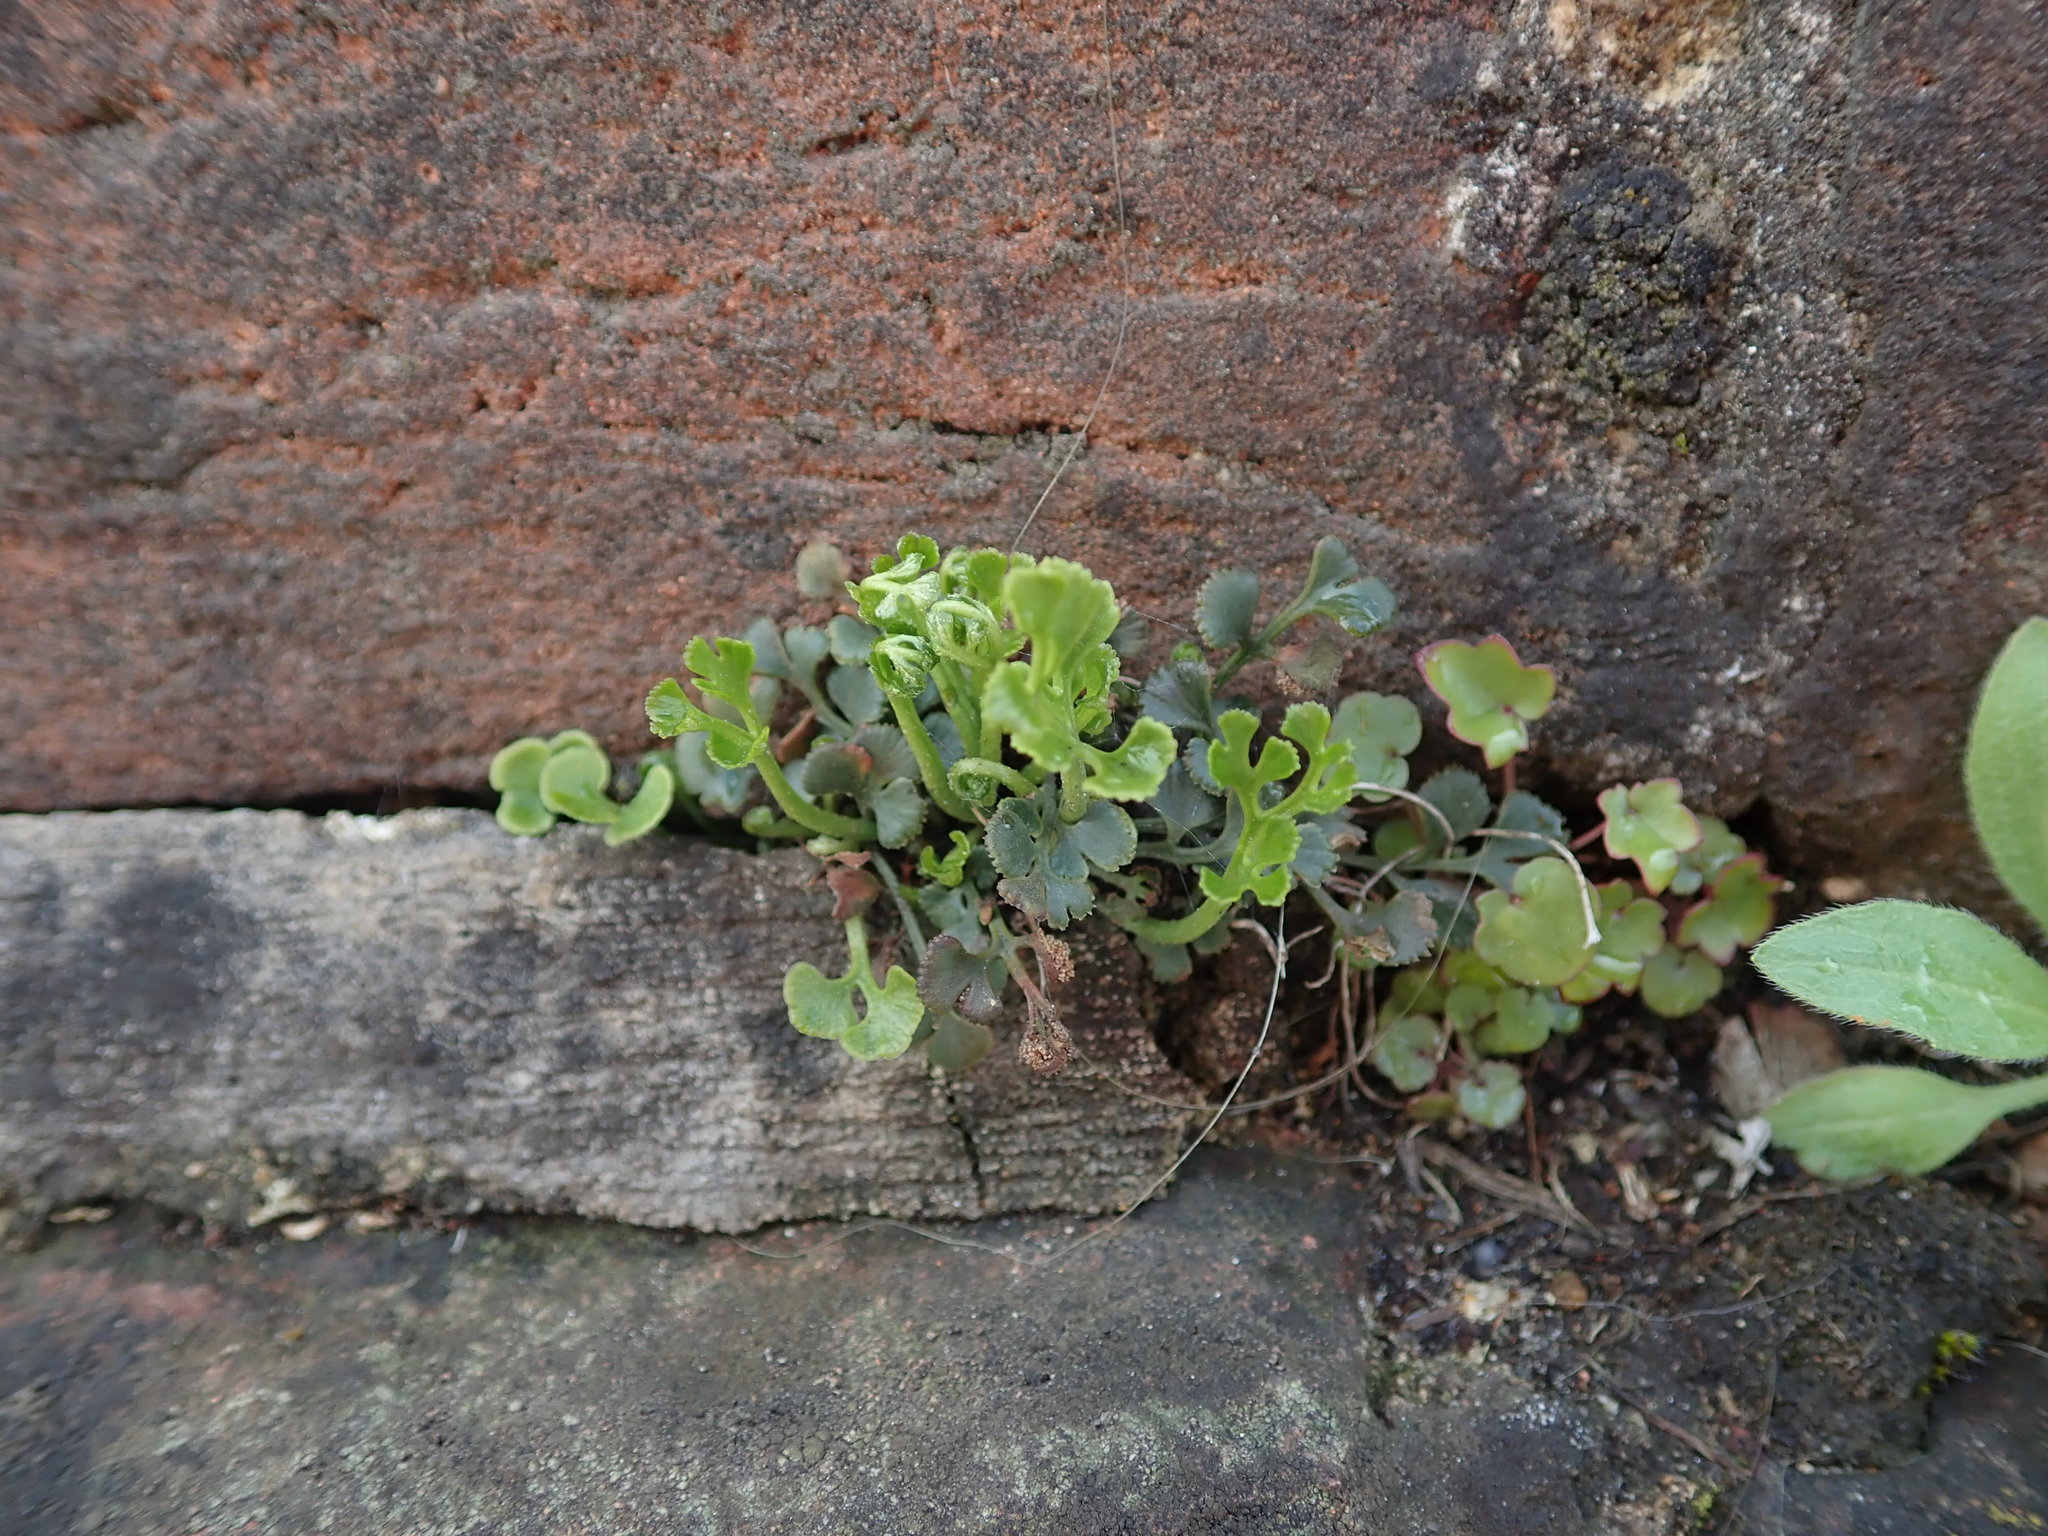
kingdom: Plantae
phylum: Tracheophyta
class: Polypodiopsida
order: Polypodiales
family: Aspleniaceae
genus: Asplenium
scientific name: Asplenium ruta-muraria
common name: Wall-rue
